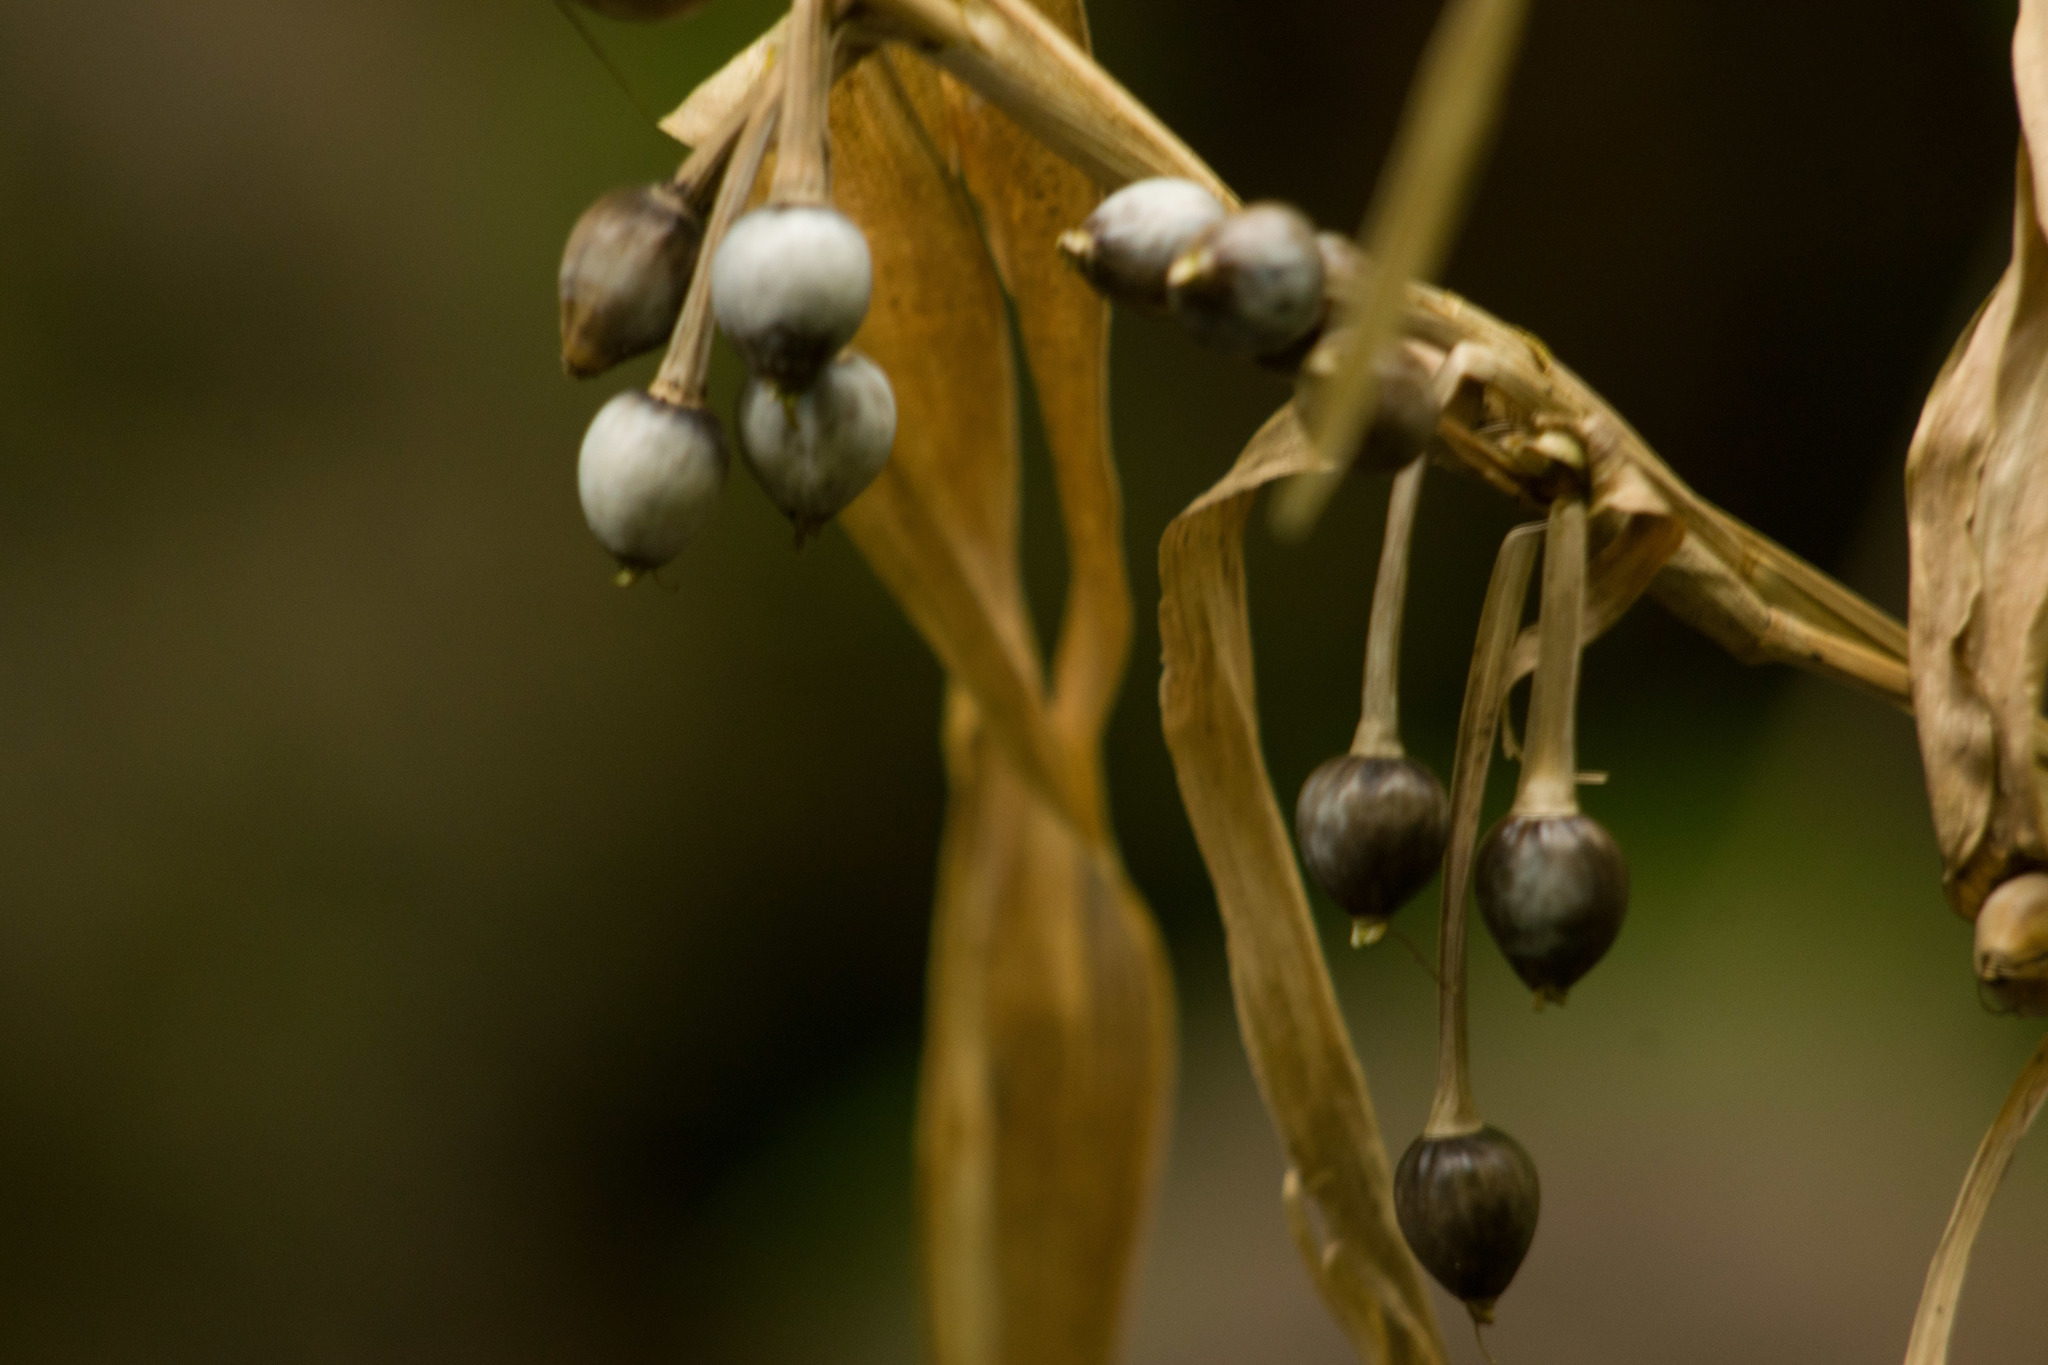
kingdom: Plantae
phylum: Tracheophyta
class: Liliopsida
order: Poales
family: Poaceae
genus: Coix
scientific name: Coix lacryma-jobi
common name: Job's tears
